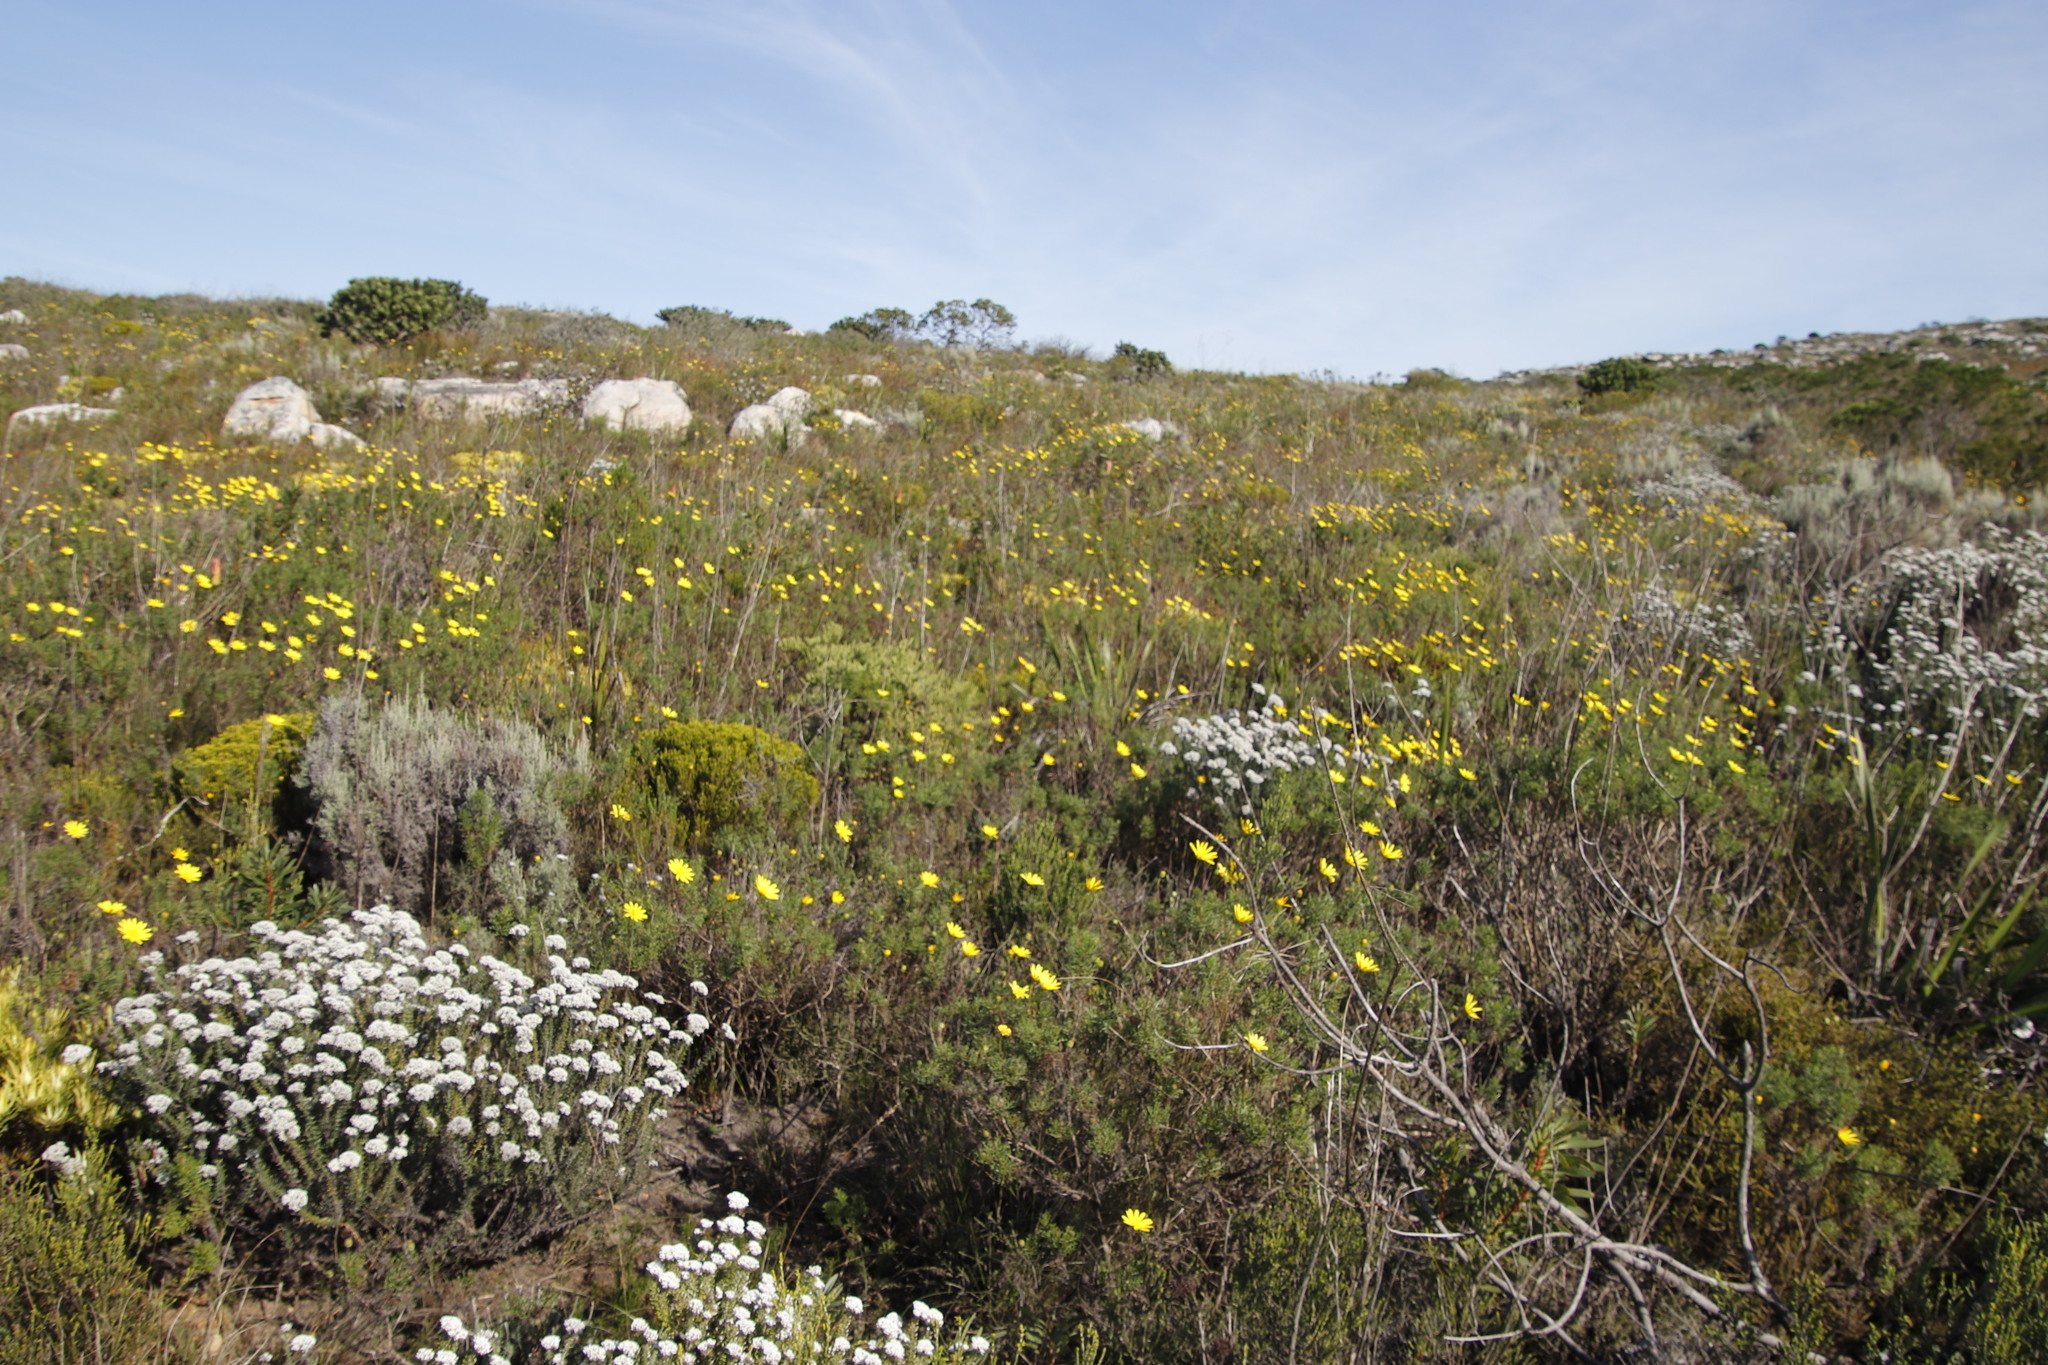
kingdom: Plantae
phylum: Tracheophyta
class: Magnoliopsida
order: Asterales
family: Asteraceae
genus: Euryops
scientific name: Euryops abrotanifolius
